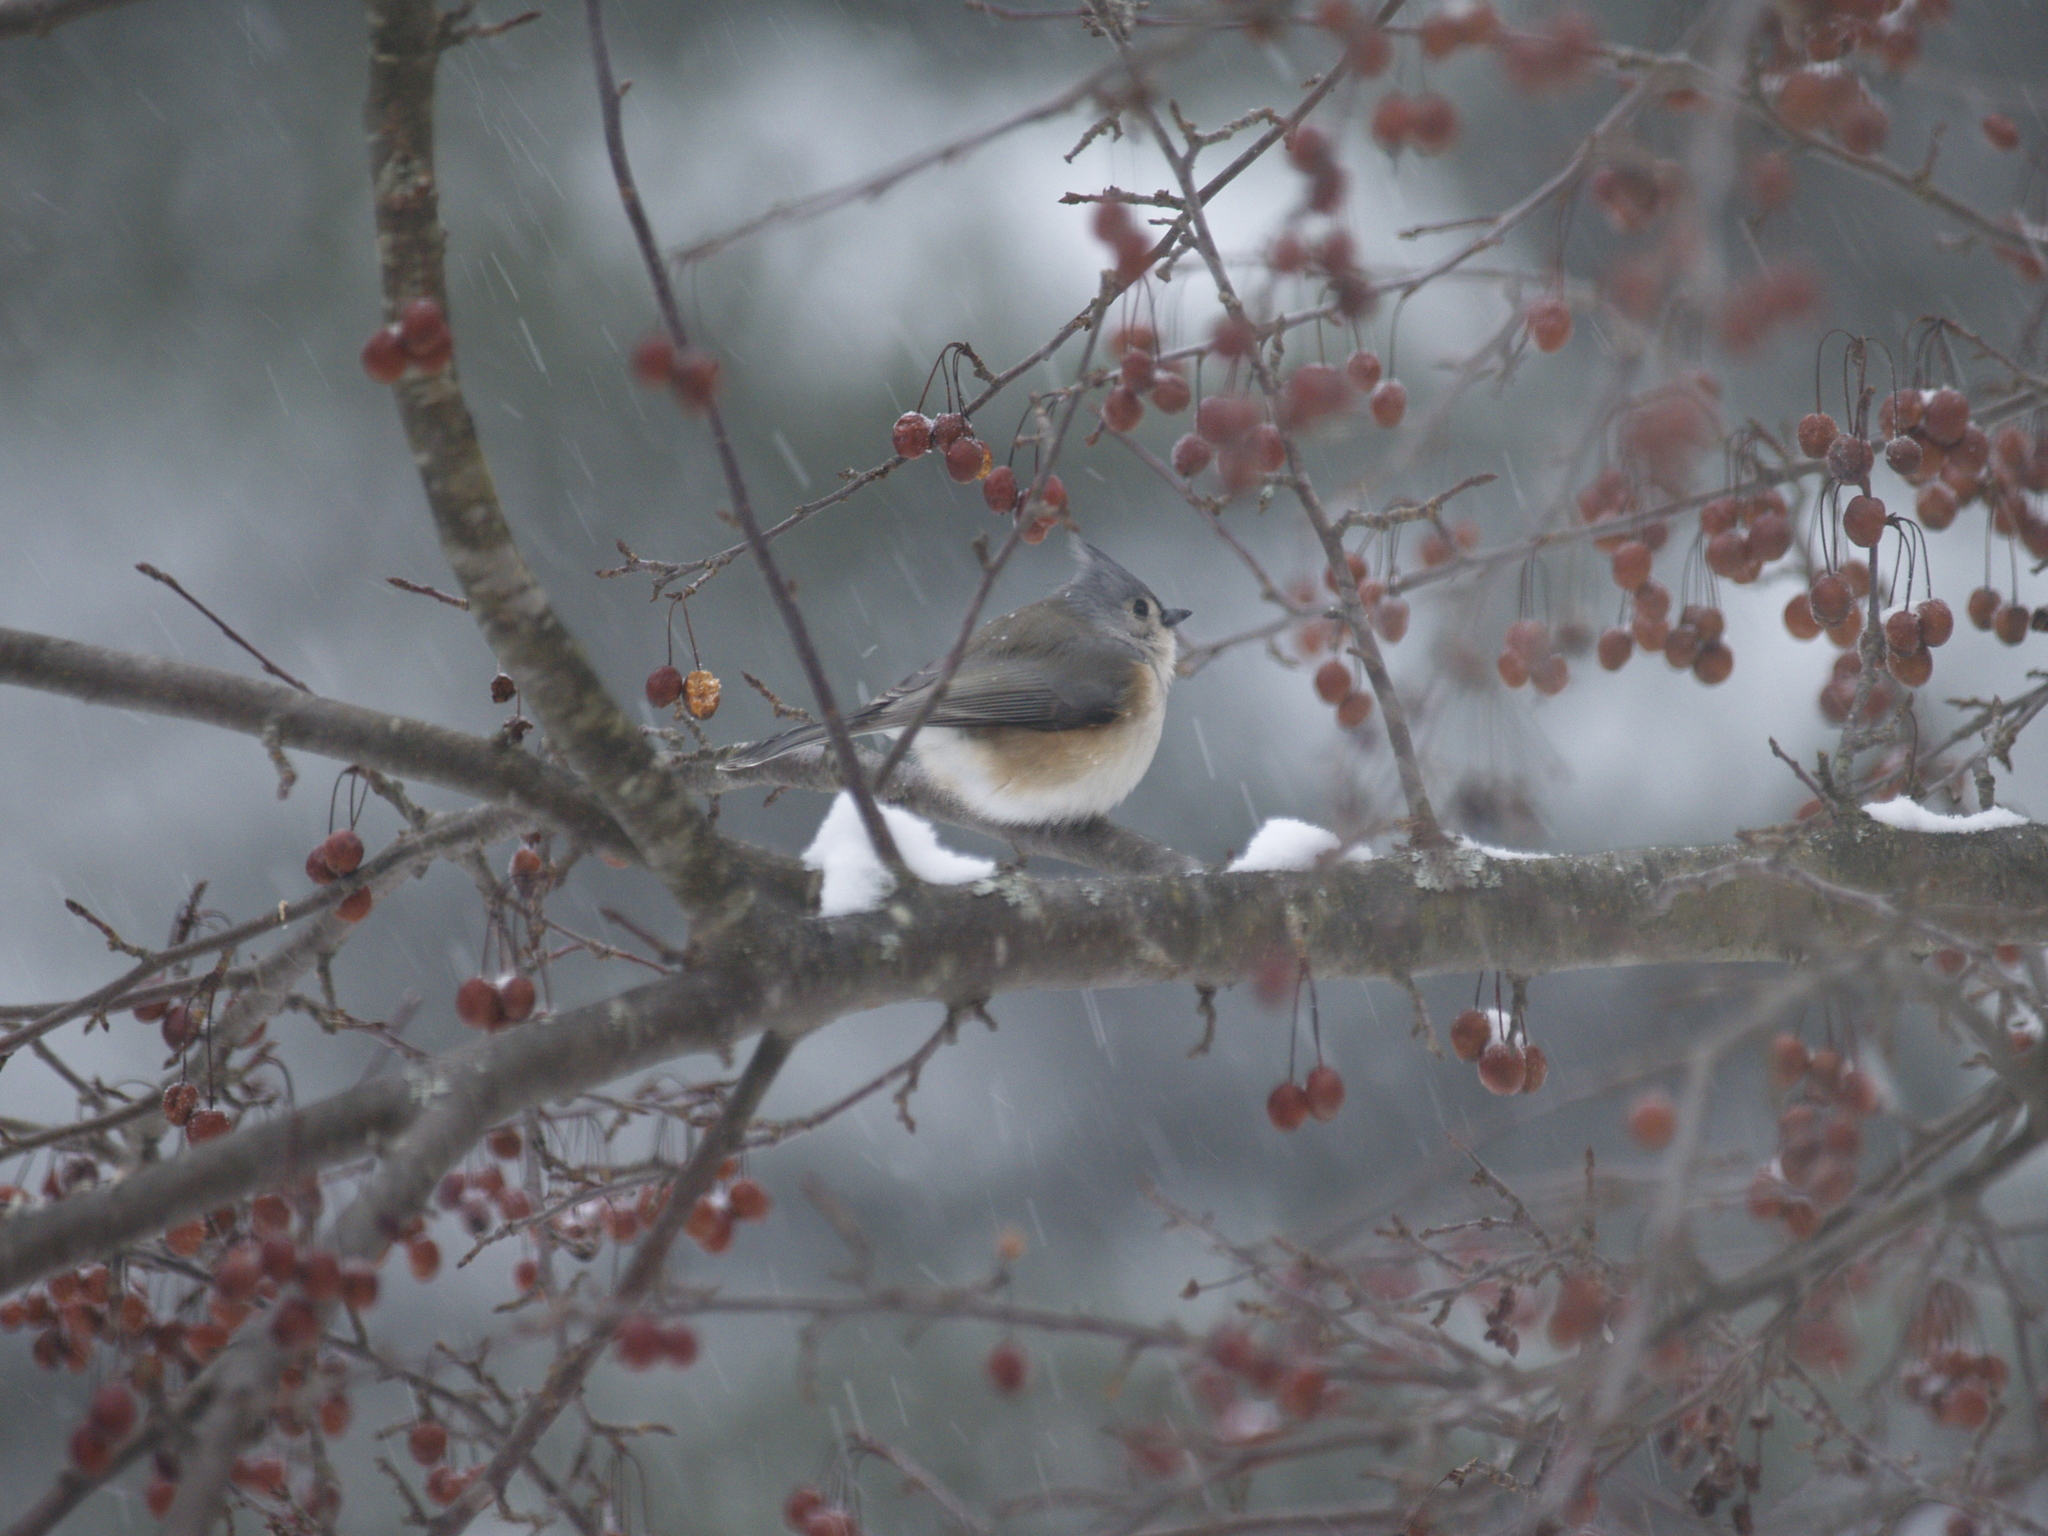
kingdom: Animalia
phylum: Chordata
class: Aves
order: Passeriformes
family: Paridae
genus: Baeolophus
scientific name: Baeolophus bicolor
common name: Tufted titmouse
